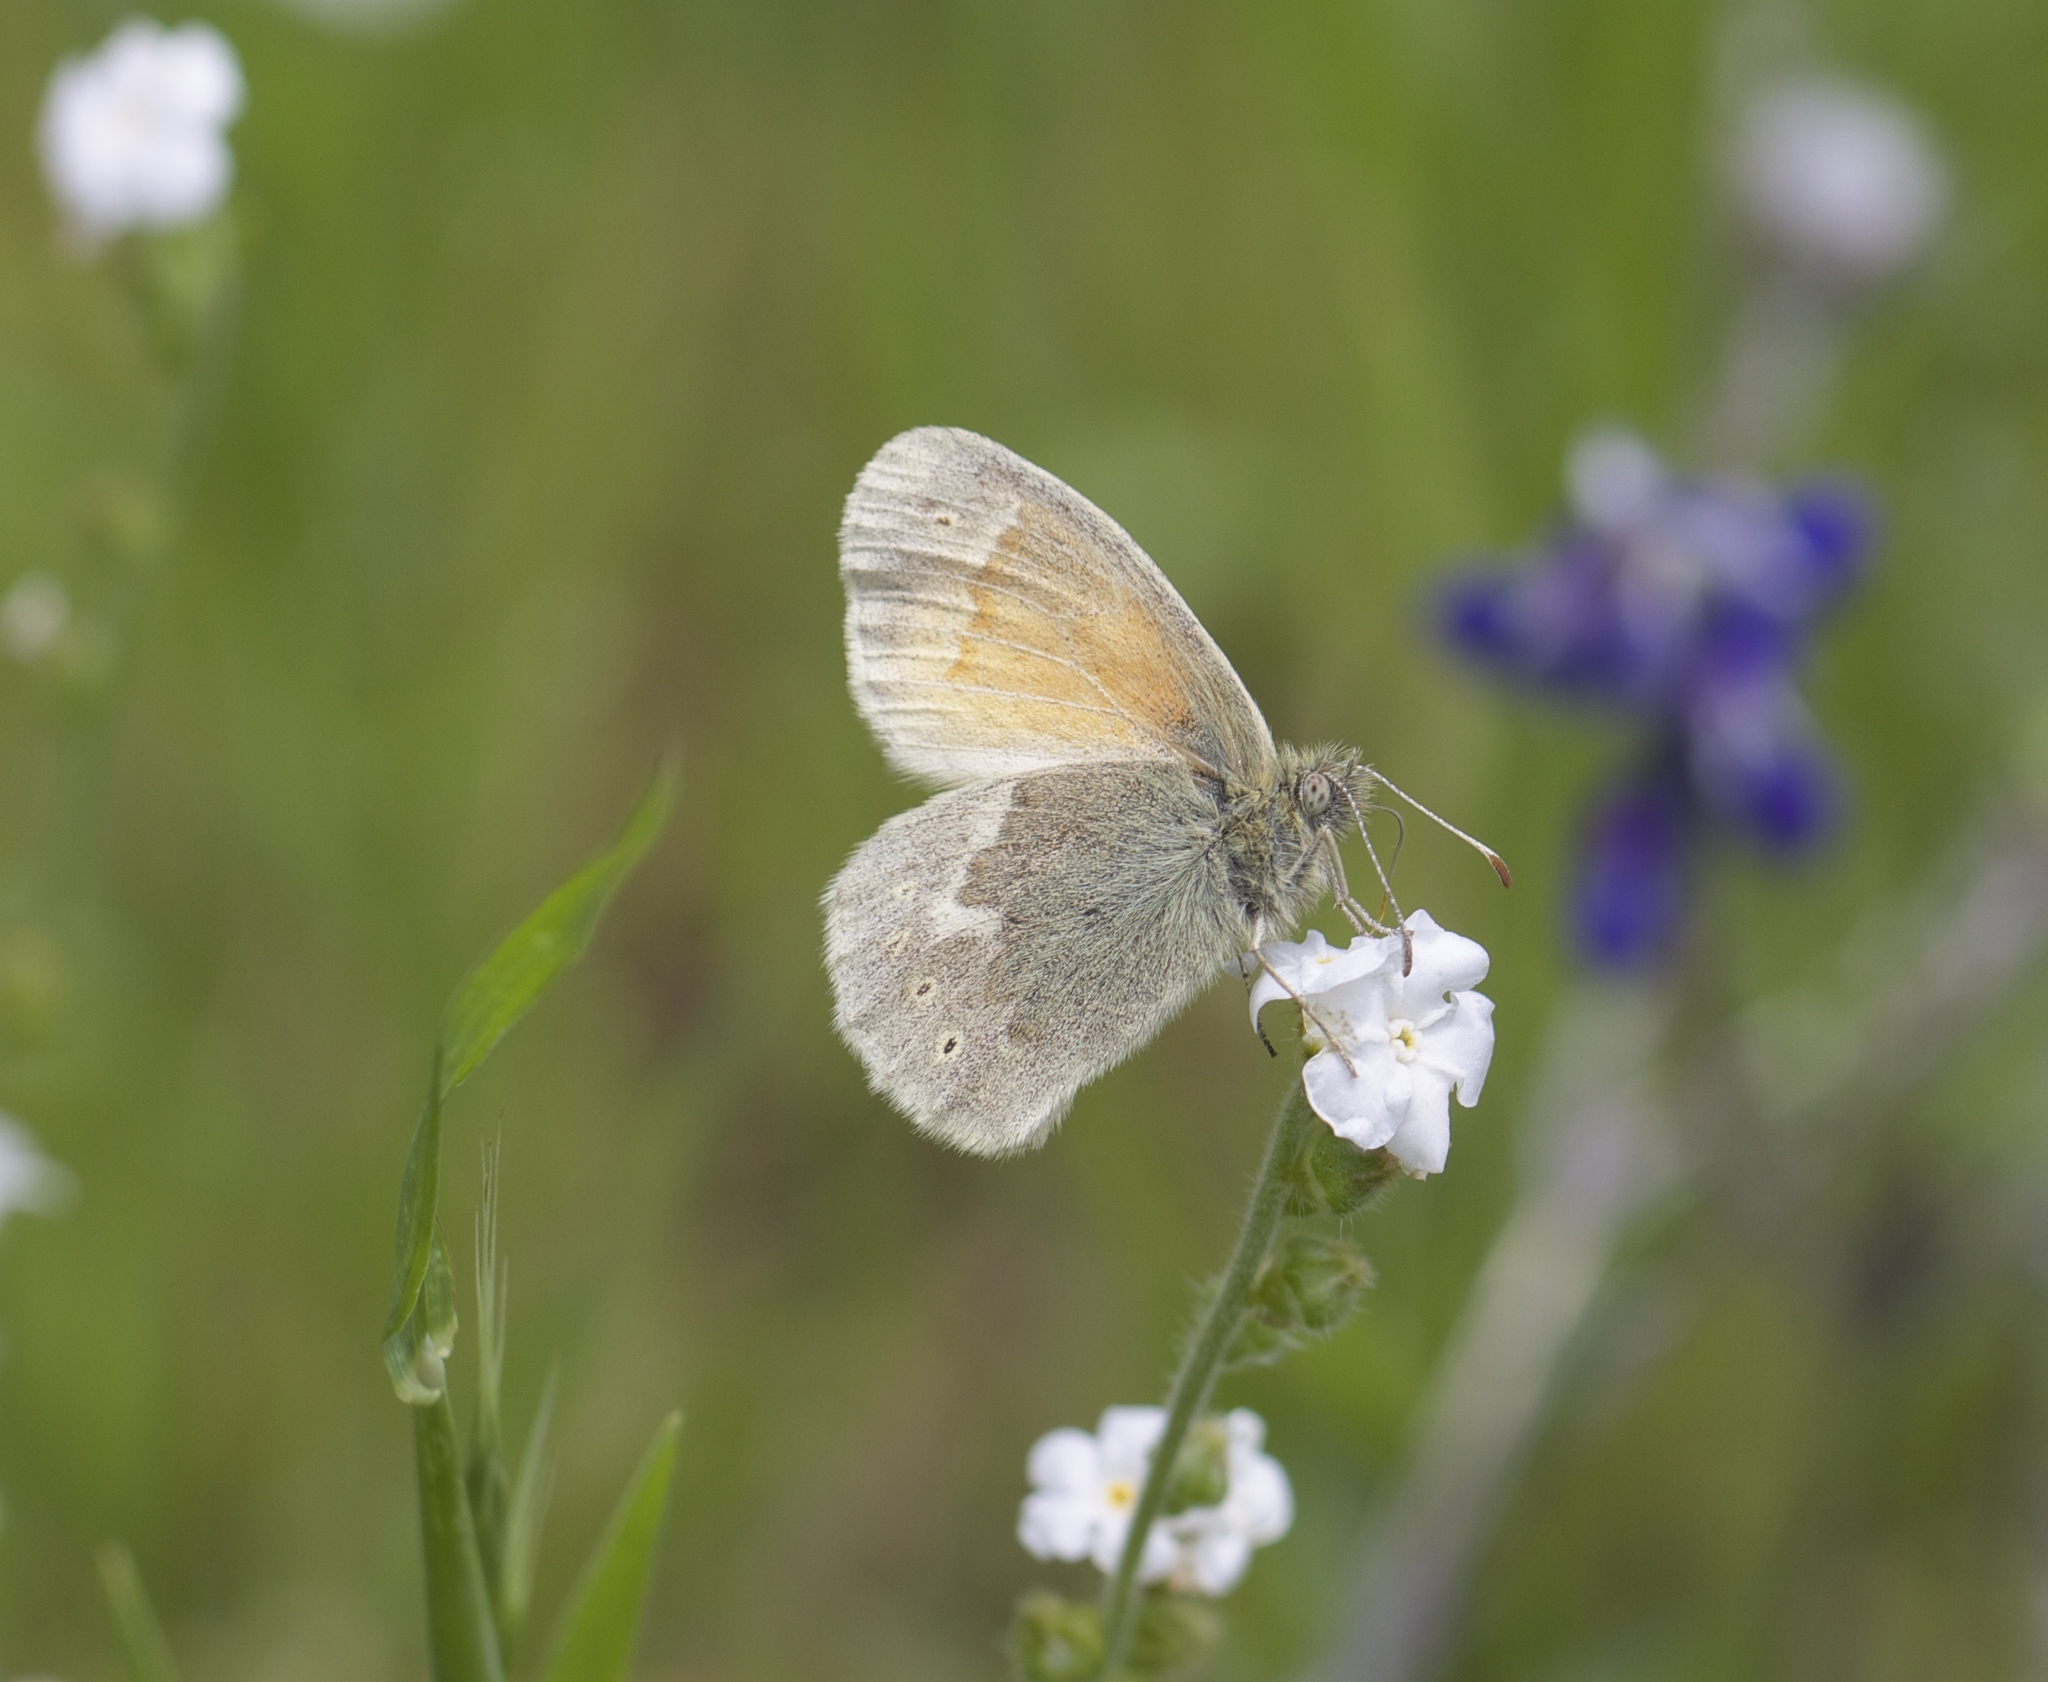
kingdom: Animalia
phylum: Arthropoda
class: Insecta
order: Lepidoptera
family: Nymphalidae
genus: Coenonympha
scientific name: Coenonympha california
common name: Common ringlet
